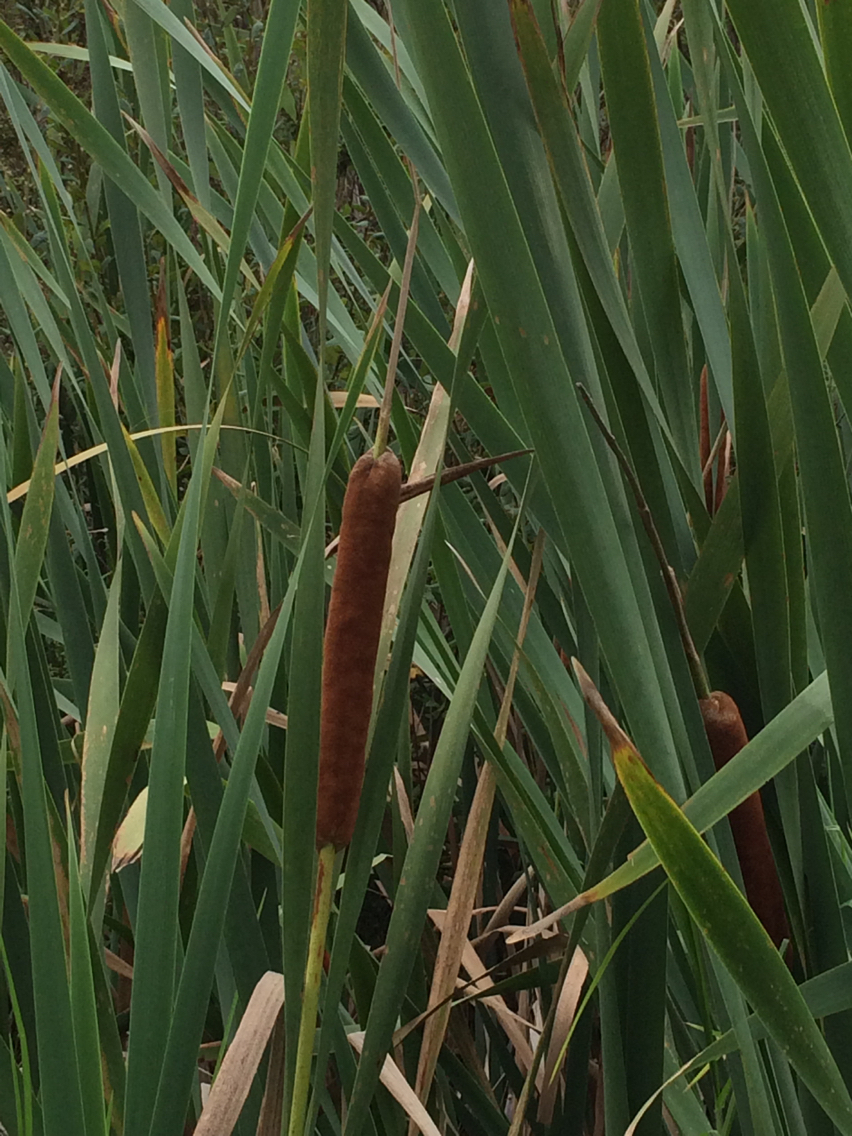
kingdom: Plantae
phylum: Tracheophyta
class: Liliopsida
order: Poales
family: Typhaceae
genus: Typha
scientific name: Typha orientalis
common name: Bullrush
